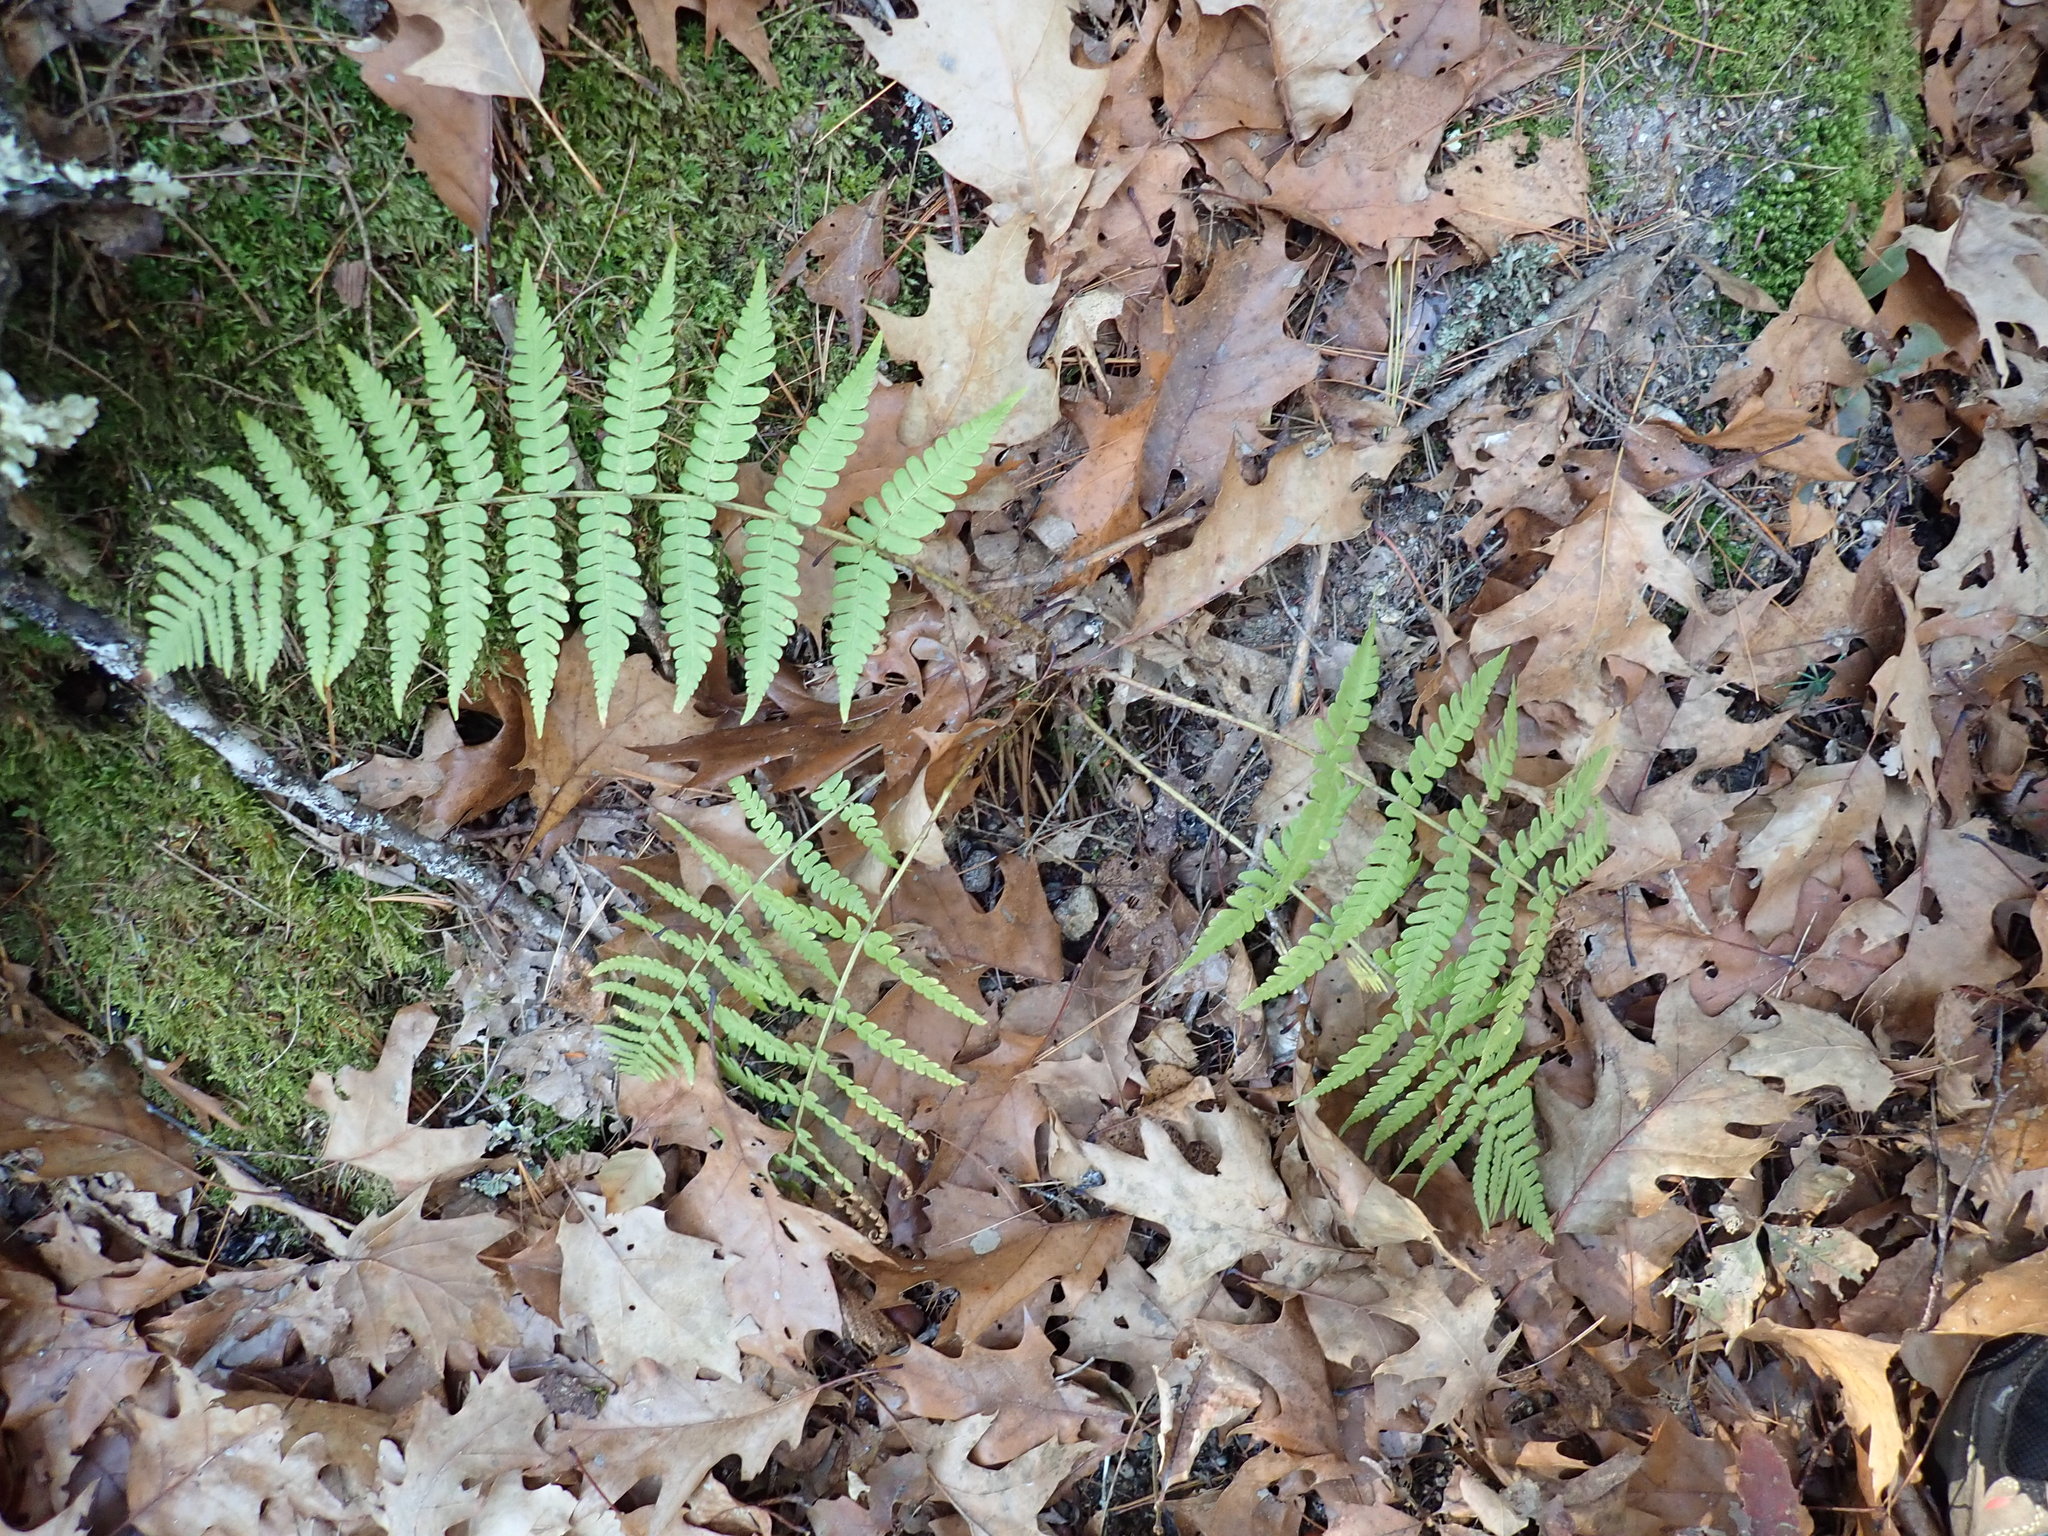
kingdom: Plantae
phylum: Tracheophyta
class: Polypodiopsida
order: Polypodiales
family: Dryopteridaceae
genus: Dryopteris
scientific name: Dryopteris marginalis
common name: Marginal wood fern
